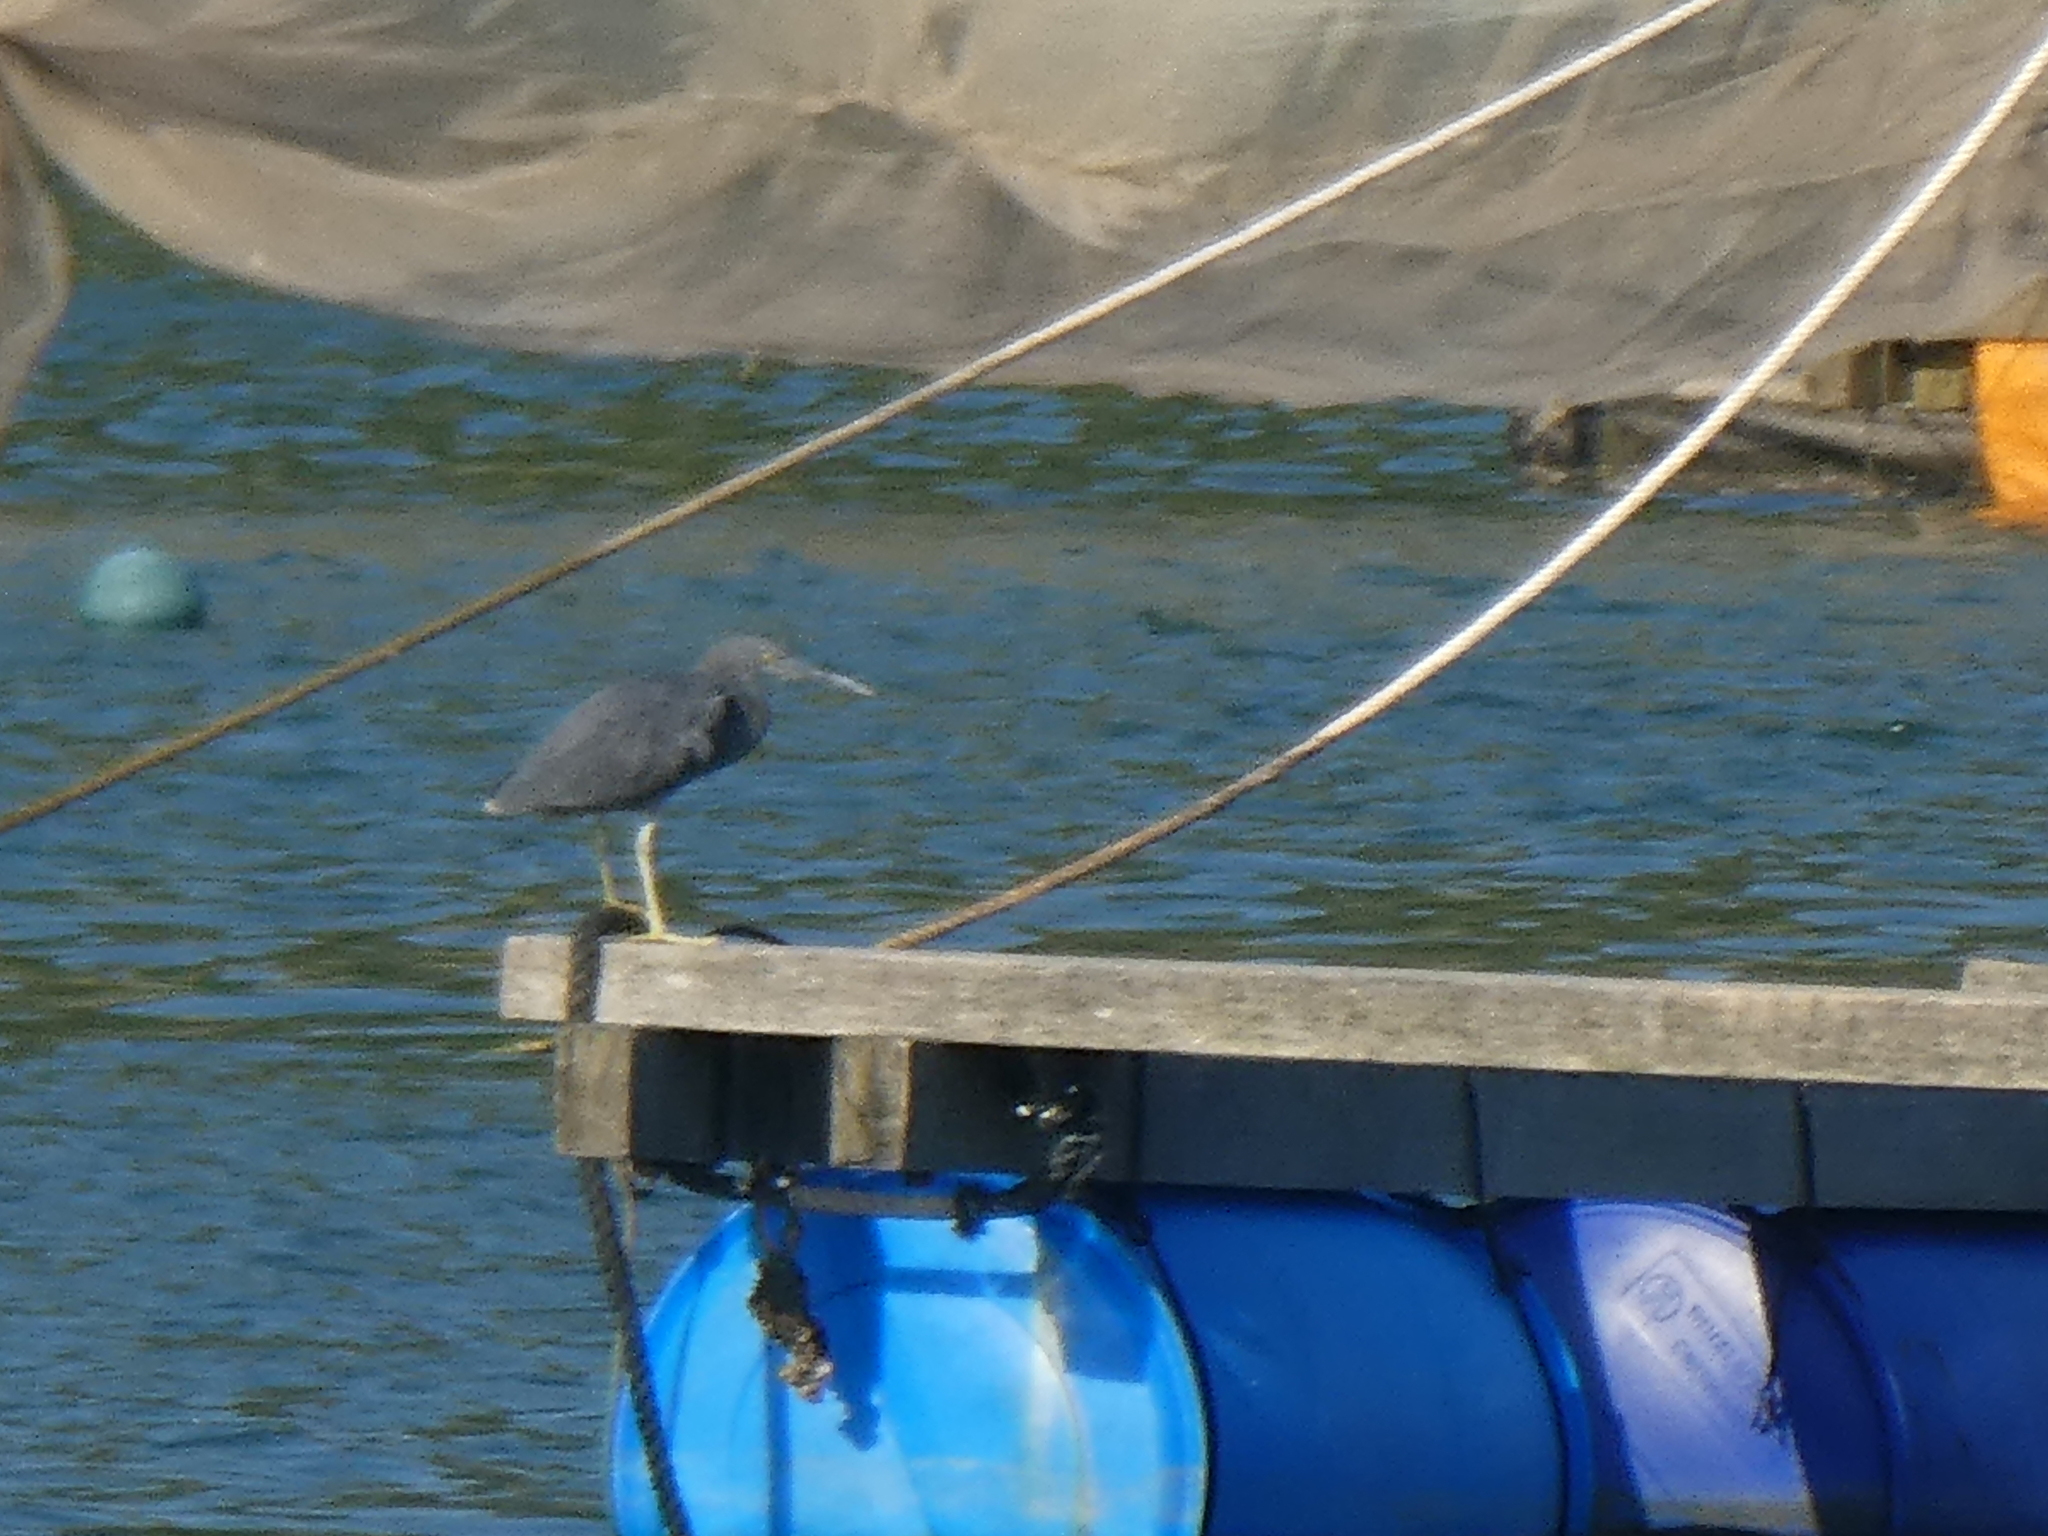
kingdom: Animalia
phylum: Chordata
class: Aves
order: Pelecaniformes
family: Ardeidae
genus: Egretta
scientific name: Egretta sacra
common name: Pacific reef heron
